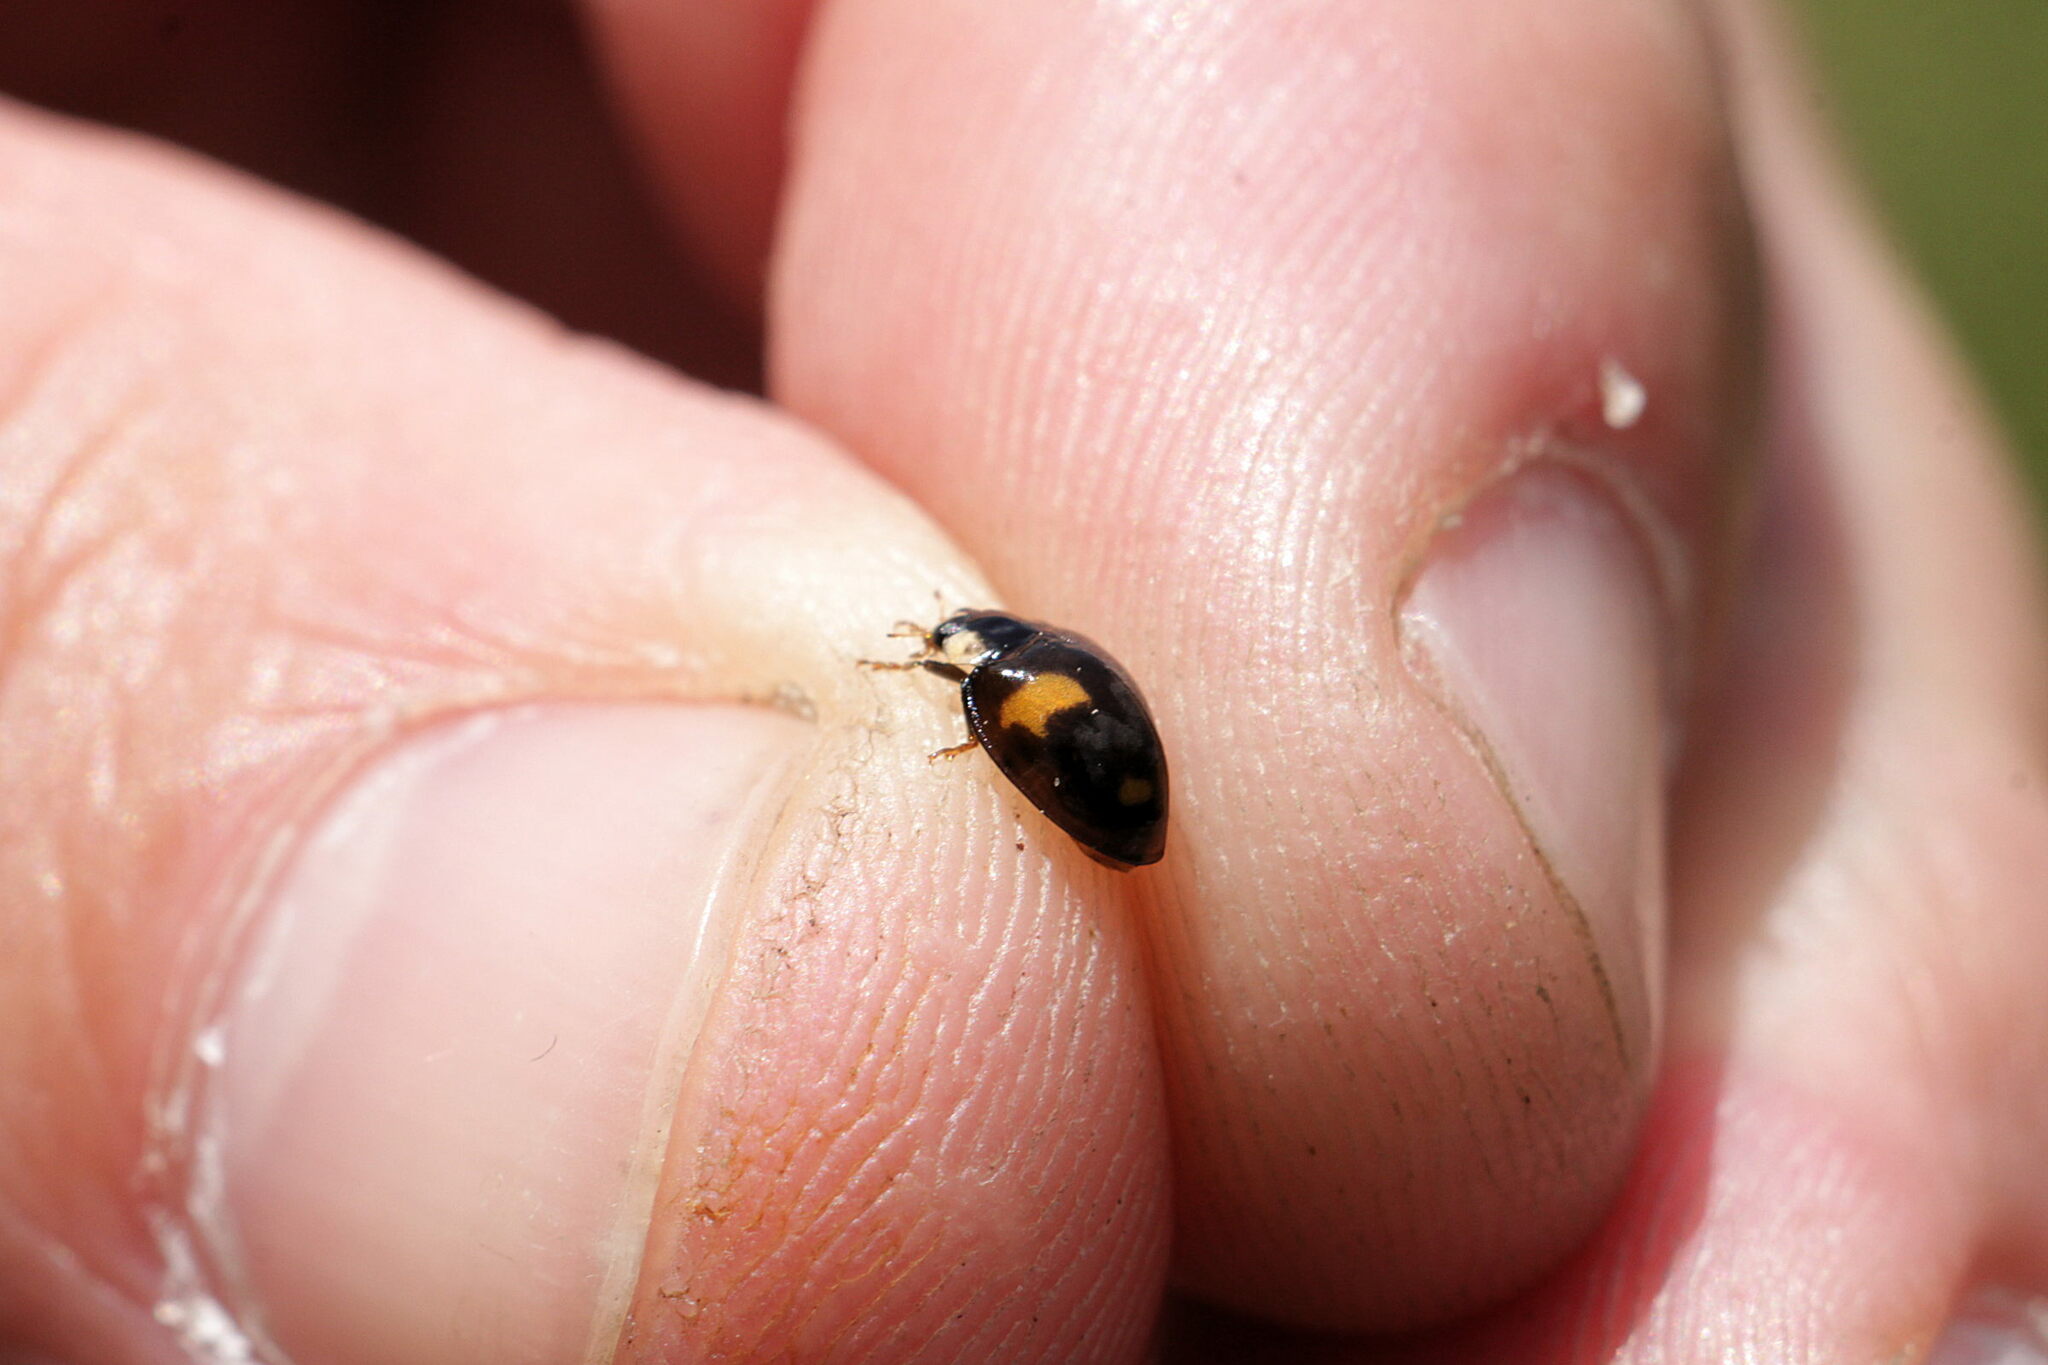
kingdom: Animalia
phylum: Arthropoda
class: Insecta
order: Coleoptera
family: Coccinellidae
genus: Harmonia
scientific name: Harmonia axyridis
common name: Harlequin ladybird
